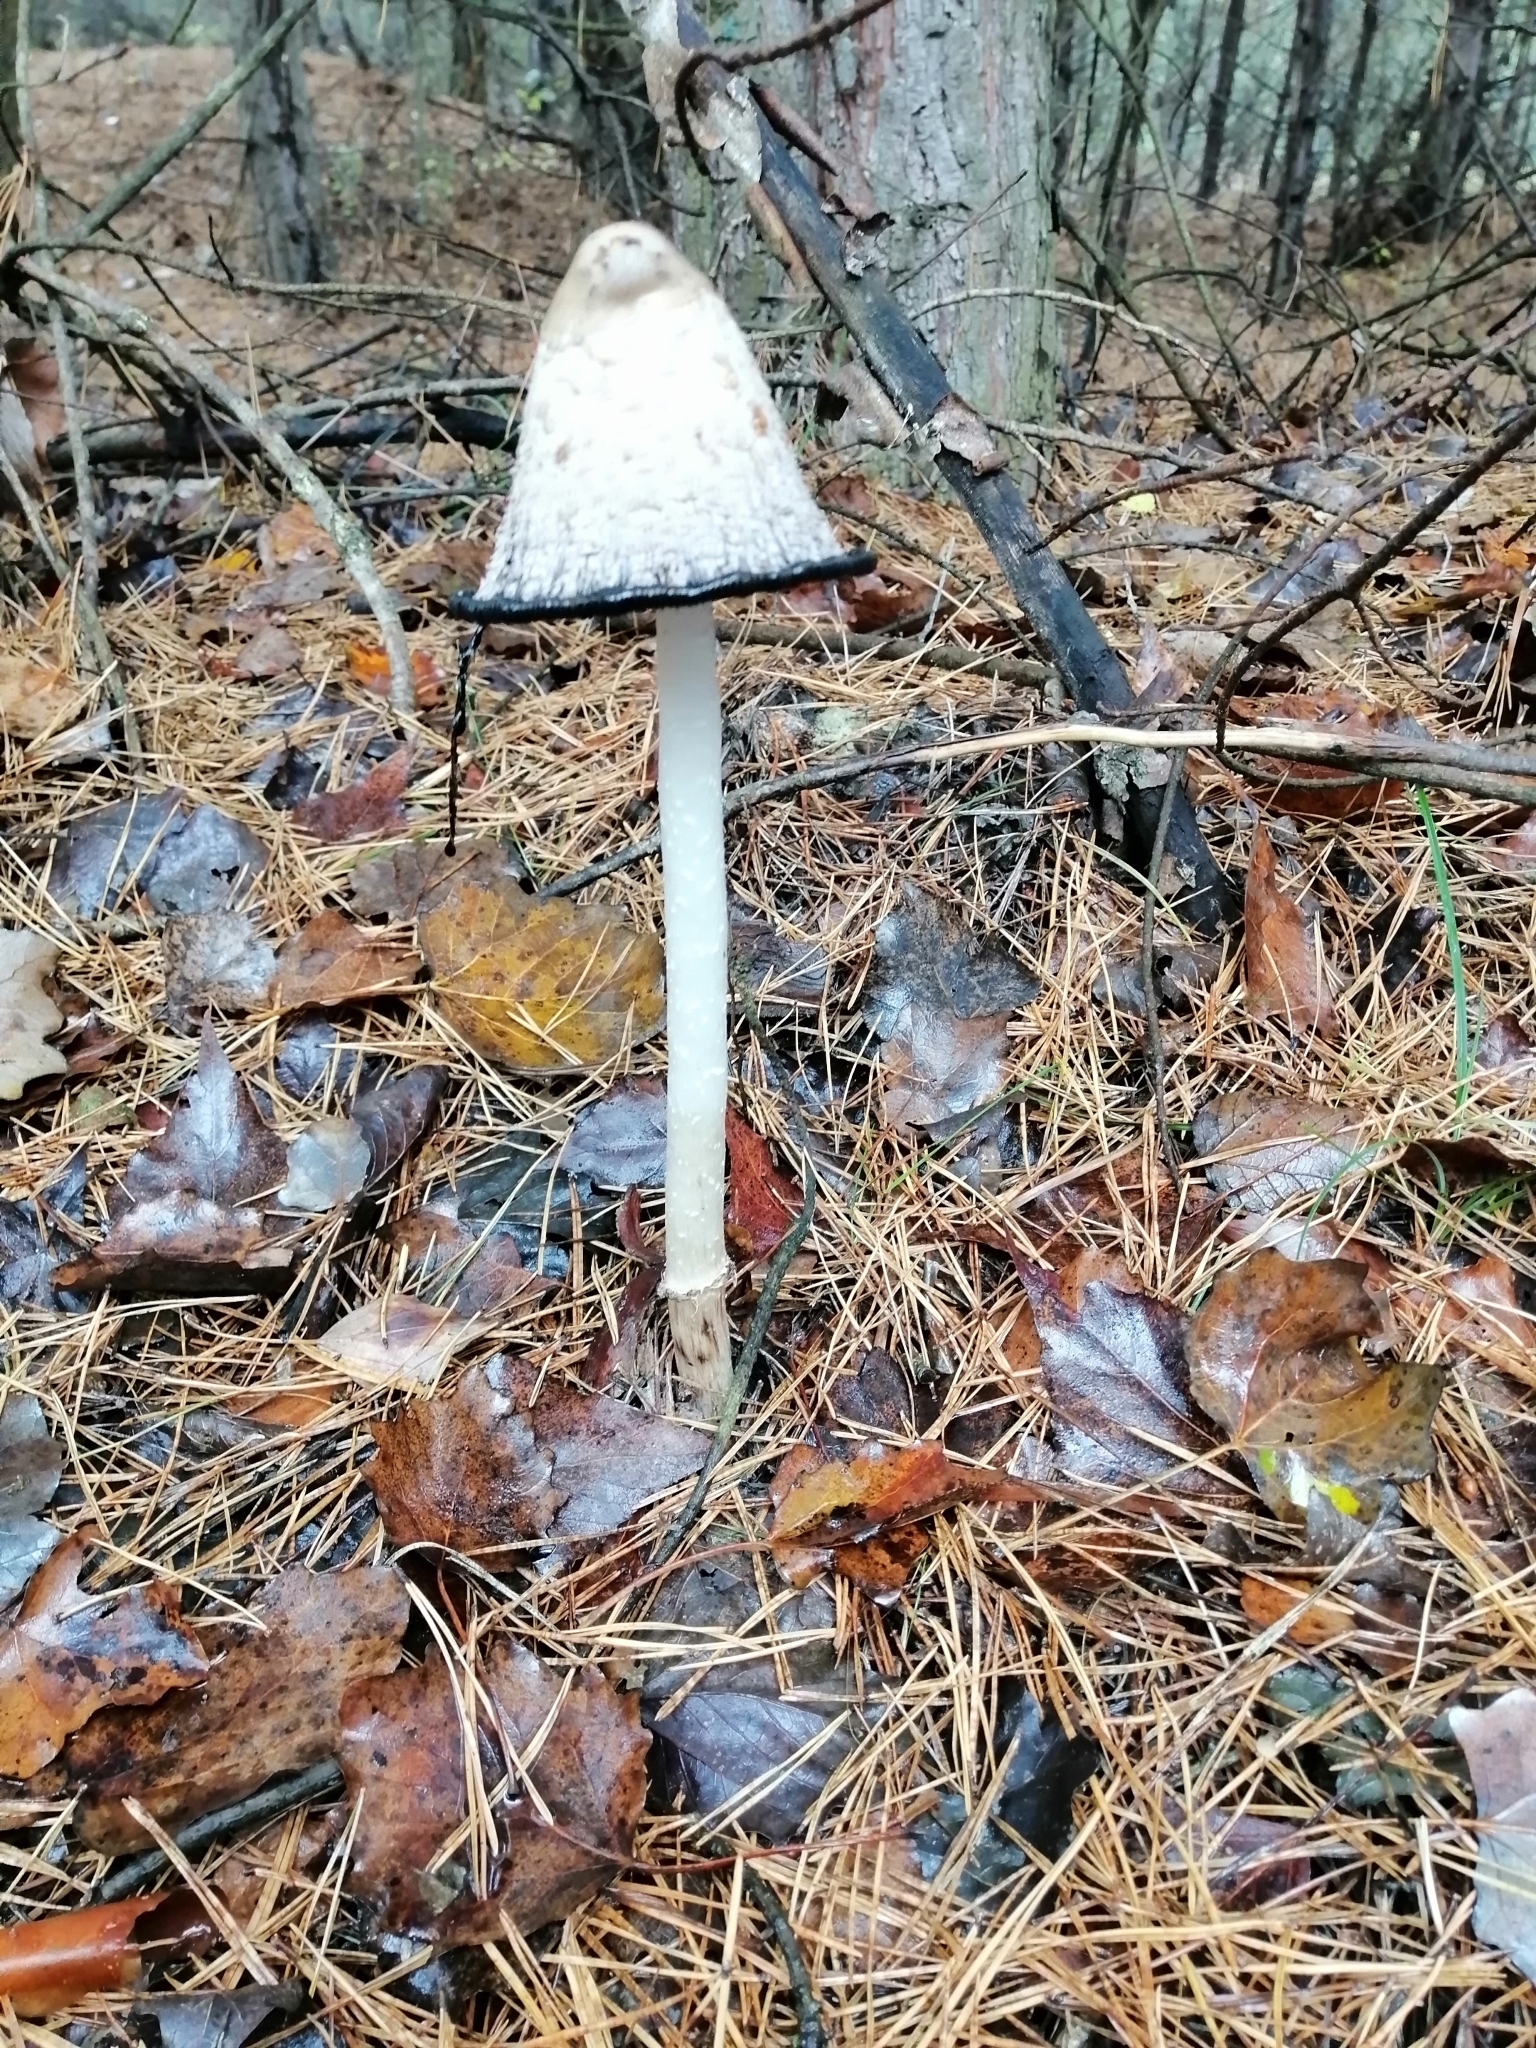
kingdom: Fungi
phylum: Basidiomycota
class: Agaricomycetes
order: Agaricales
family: Agaricaceae
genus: Coprinus
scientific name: Coprinus comatus
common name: Lawyer's wig
